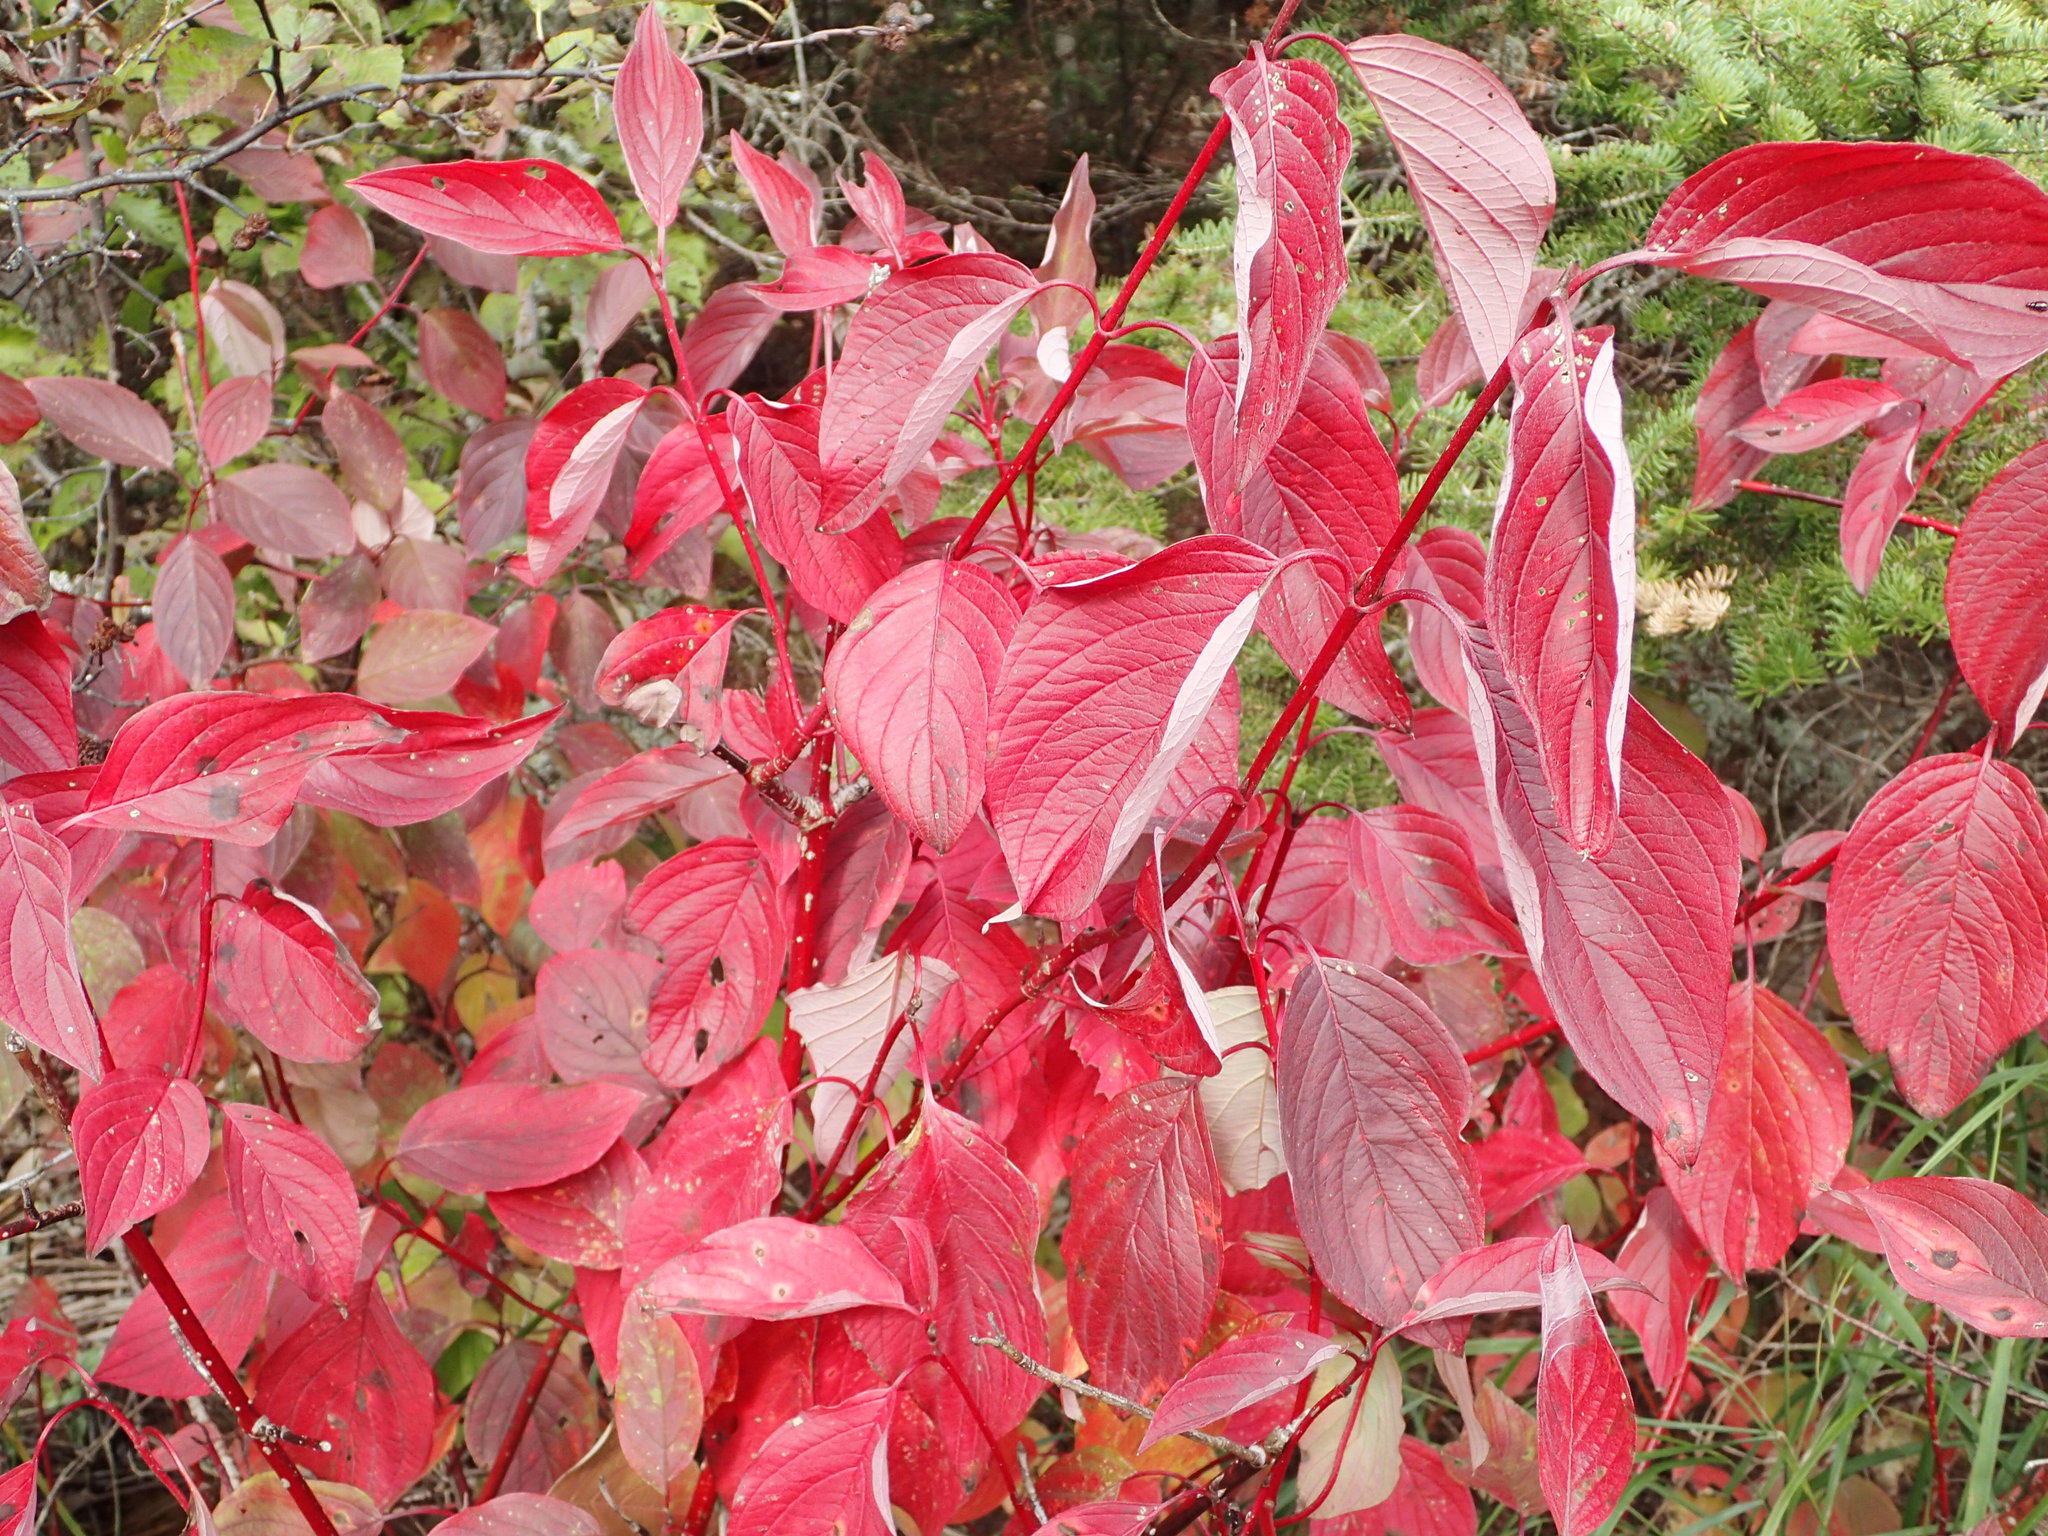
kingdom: Plantae
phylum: Tracheophyta
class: Magnoliopsida
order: Cornales
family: Cornaceae
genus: Cornus
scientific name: Cornus sericea
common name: Red-osier dogwood
